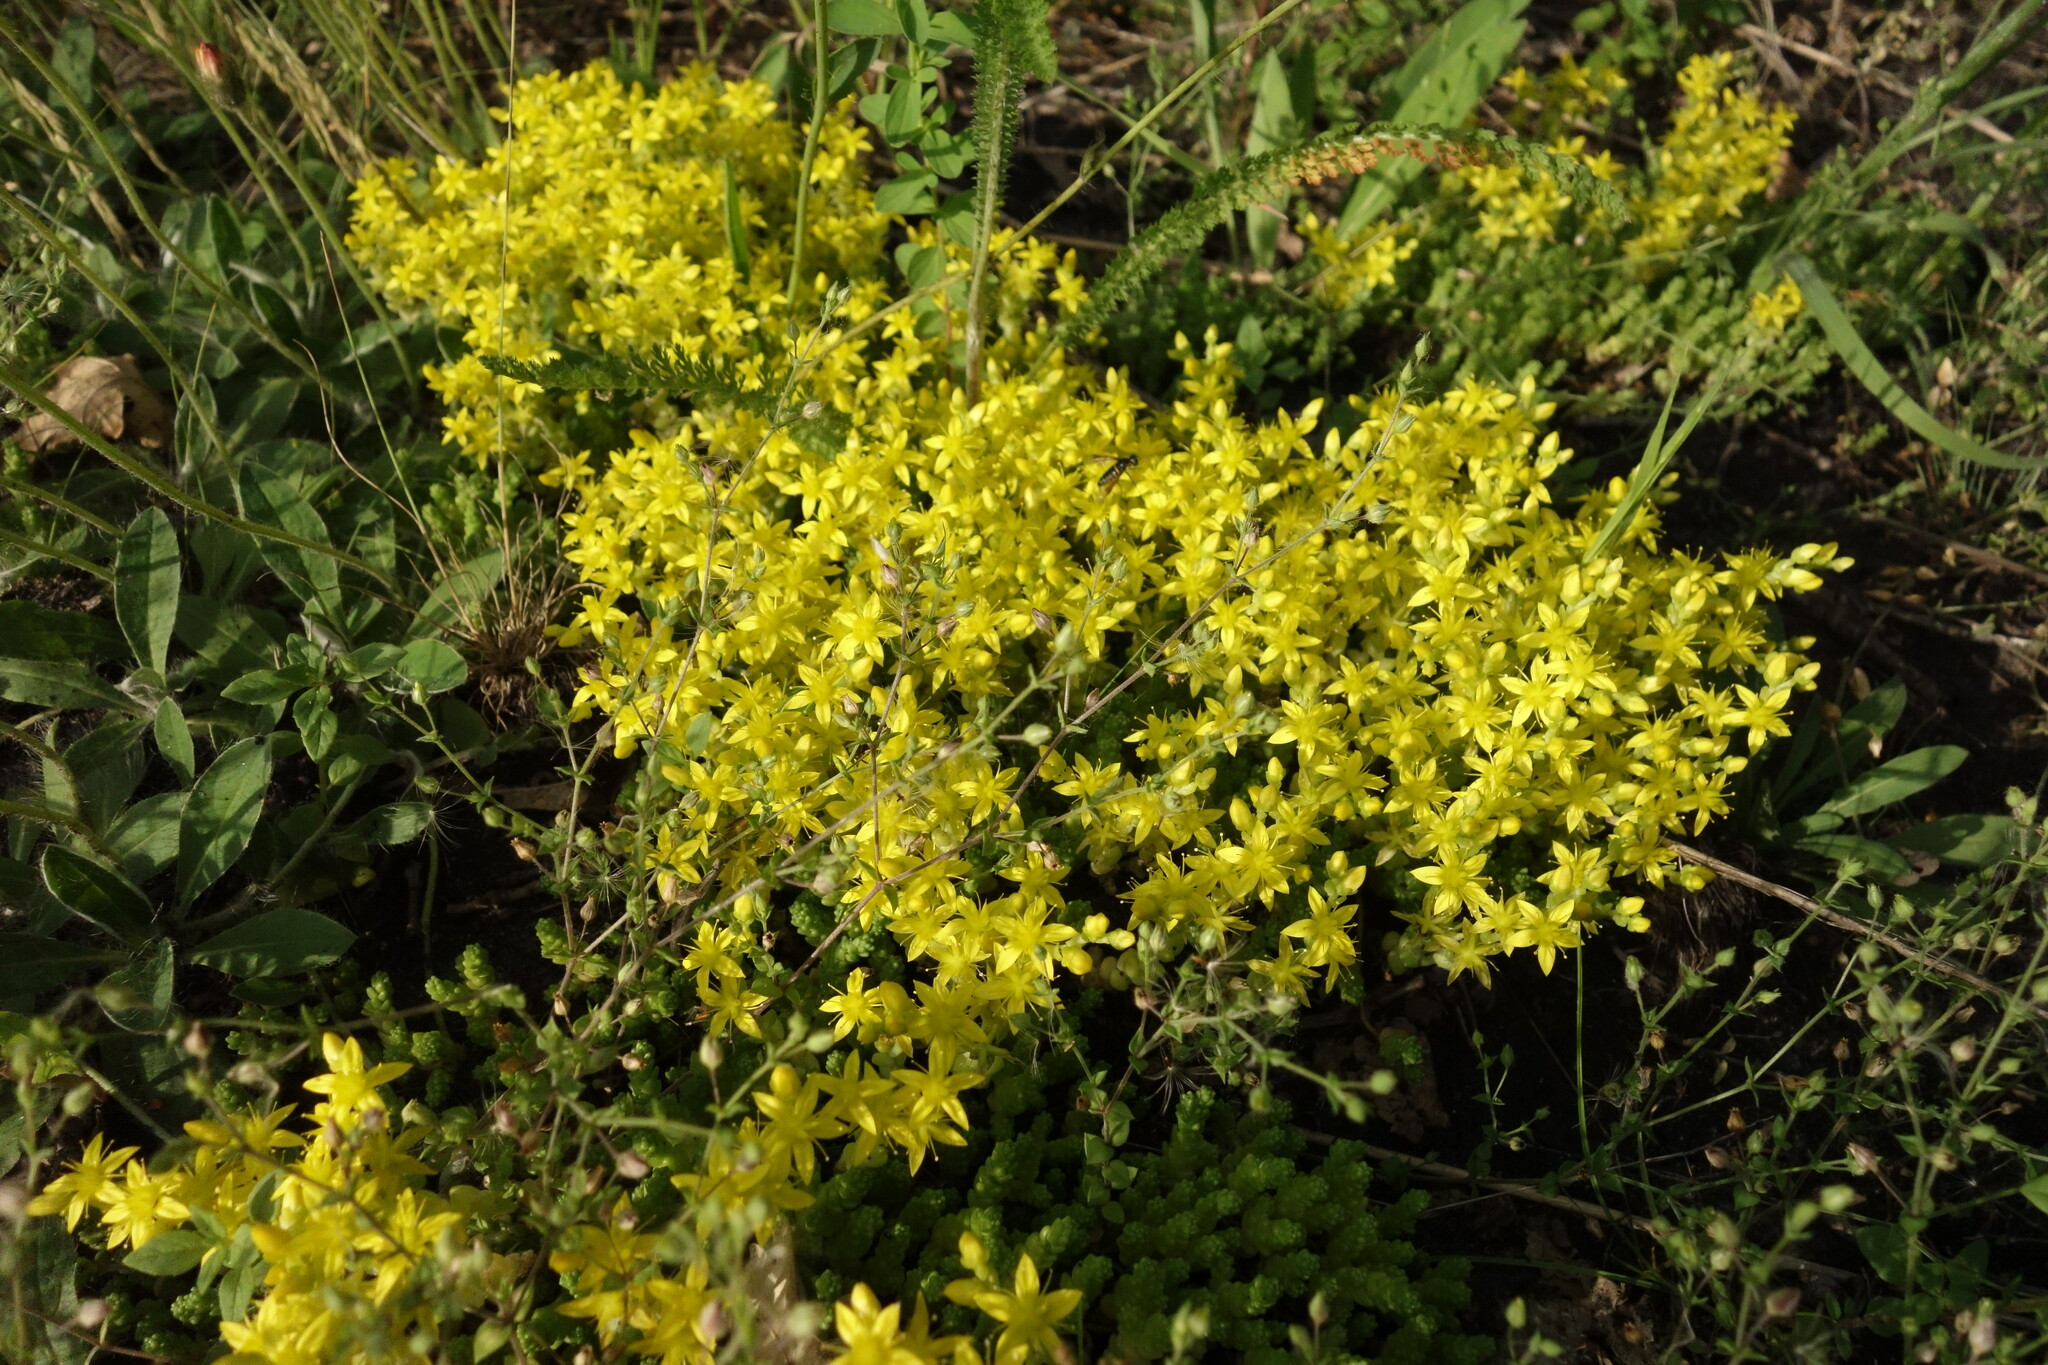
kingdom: Plantae
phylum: Tracheophyta
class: Magnoliopsida
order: Saxifragales
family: Crassulaceae
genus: Sedum
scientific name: Sedum acre
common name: Biting stonecrop
